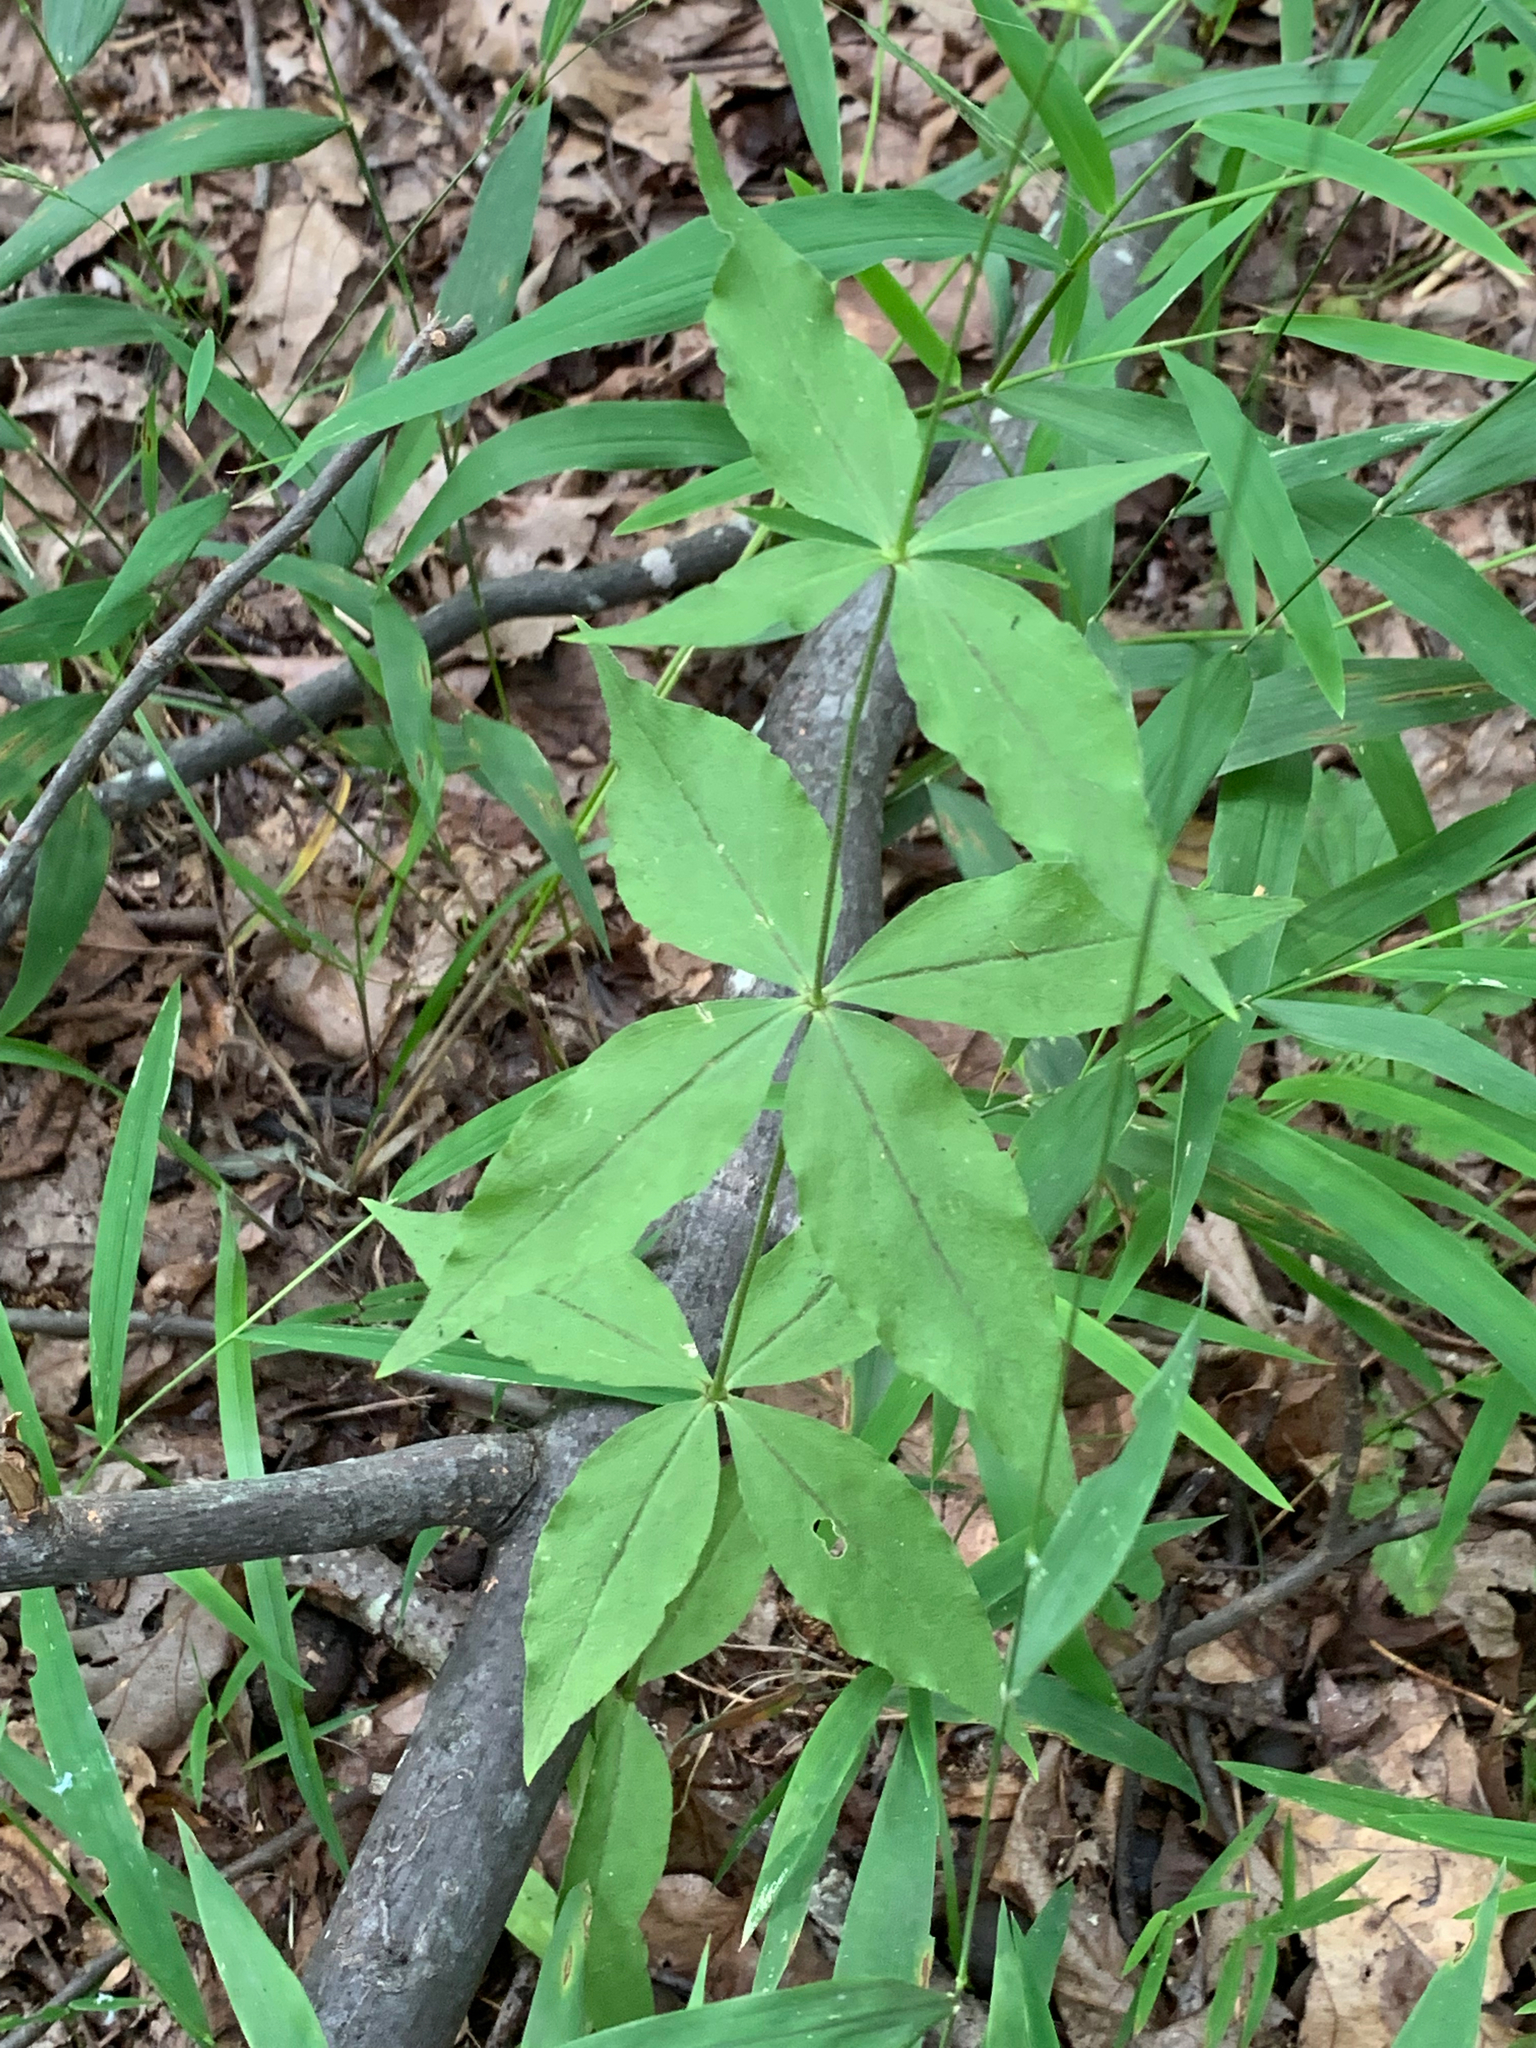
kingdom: Plantae
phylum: Tracheophyta
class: Magnoliopsida
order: Caryophyllales
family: Caryophyllaceae
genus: Silene
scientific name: Silene stellata
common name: Starry campion
